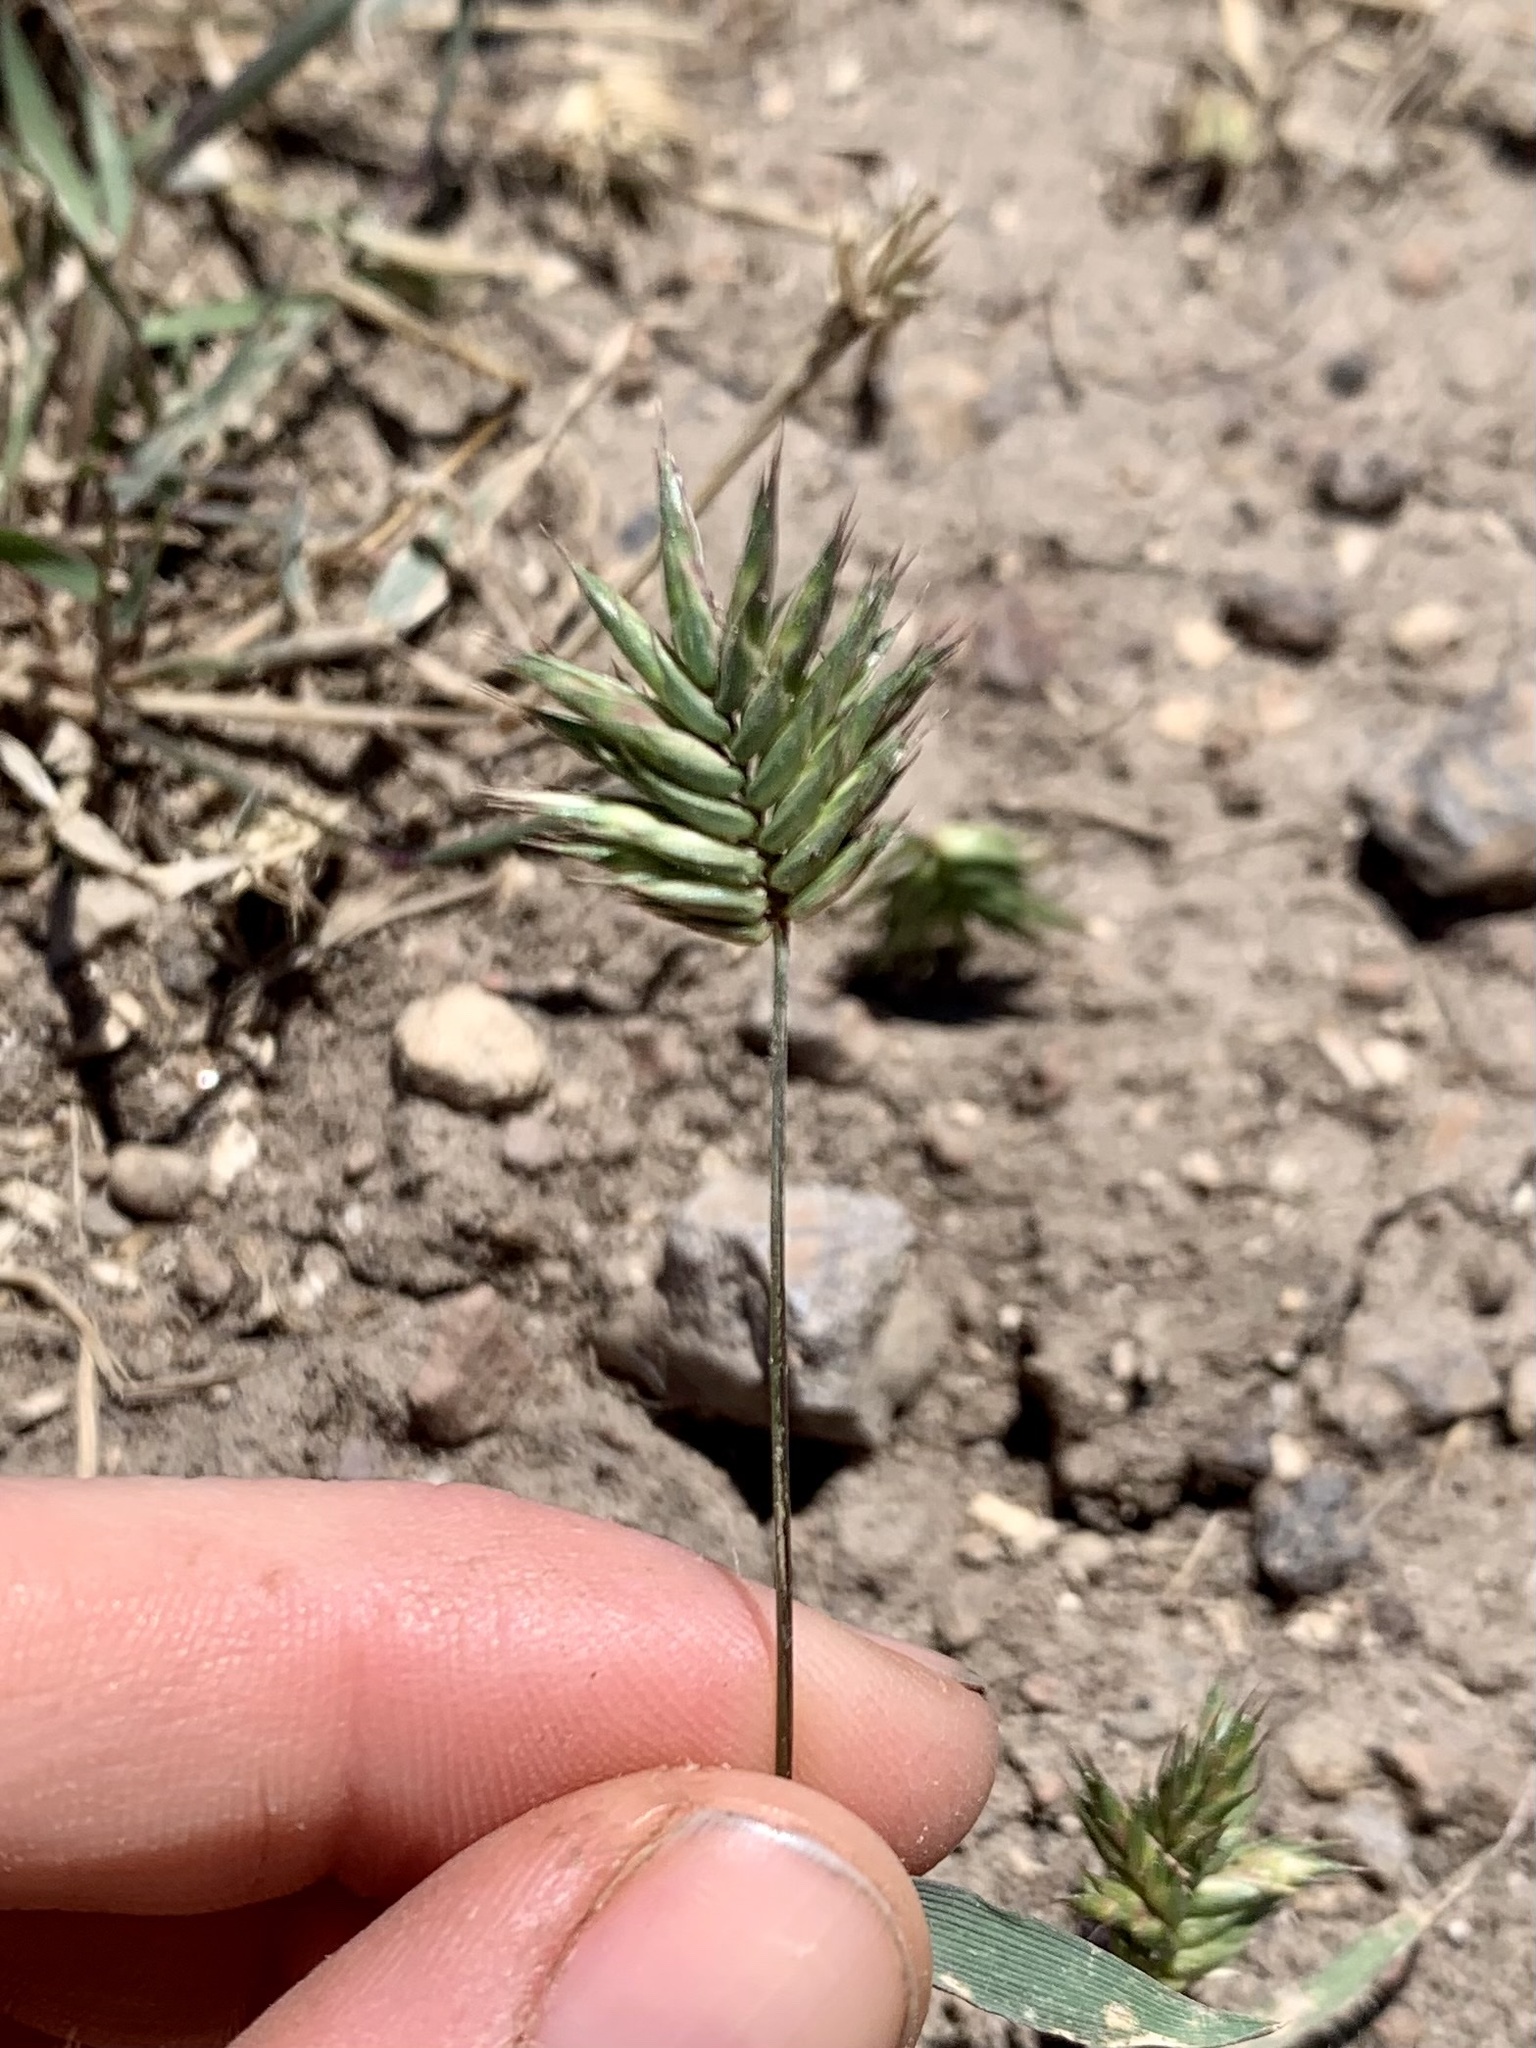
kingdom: Plantae
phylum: Tracheophyta
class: Liliopsida
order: Poales
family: Poaceae
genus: Eremopyrum
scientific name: Eremopyrum triticeum
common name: Annual wheatgrass
